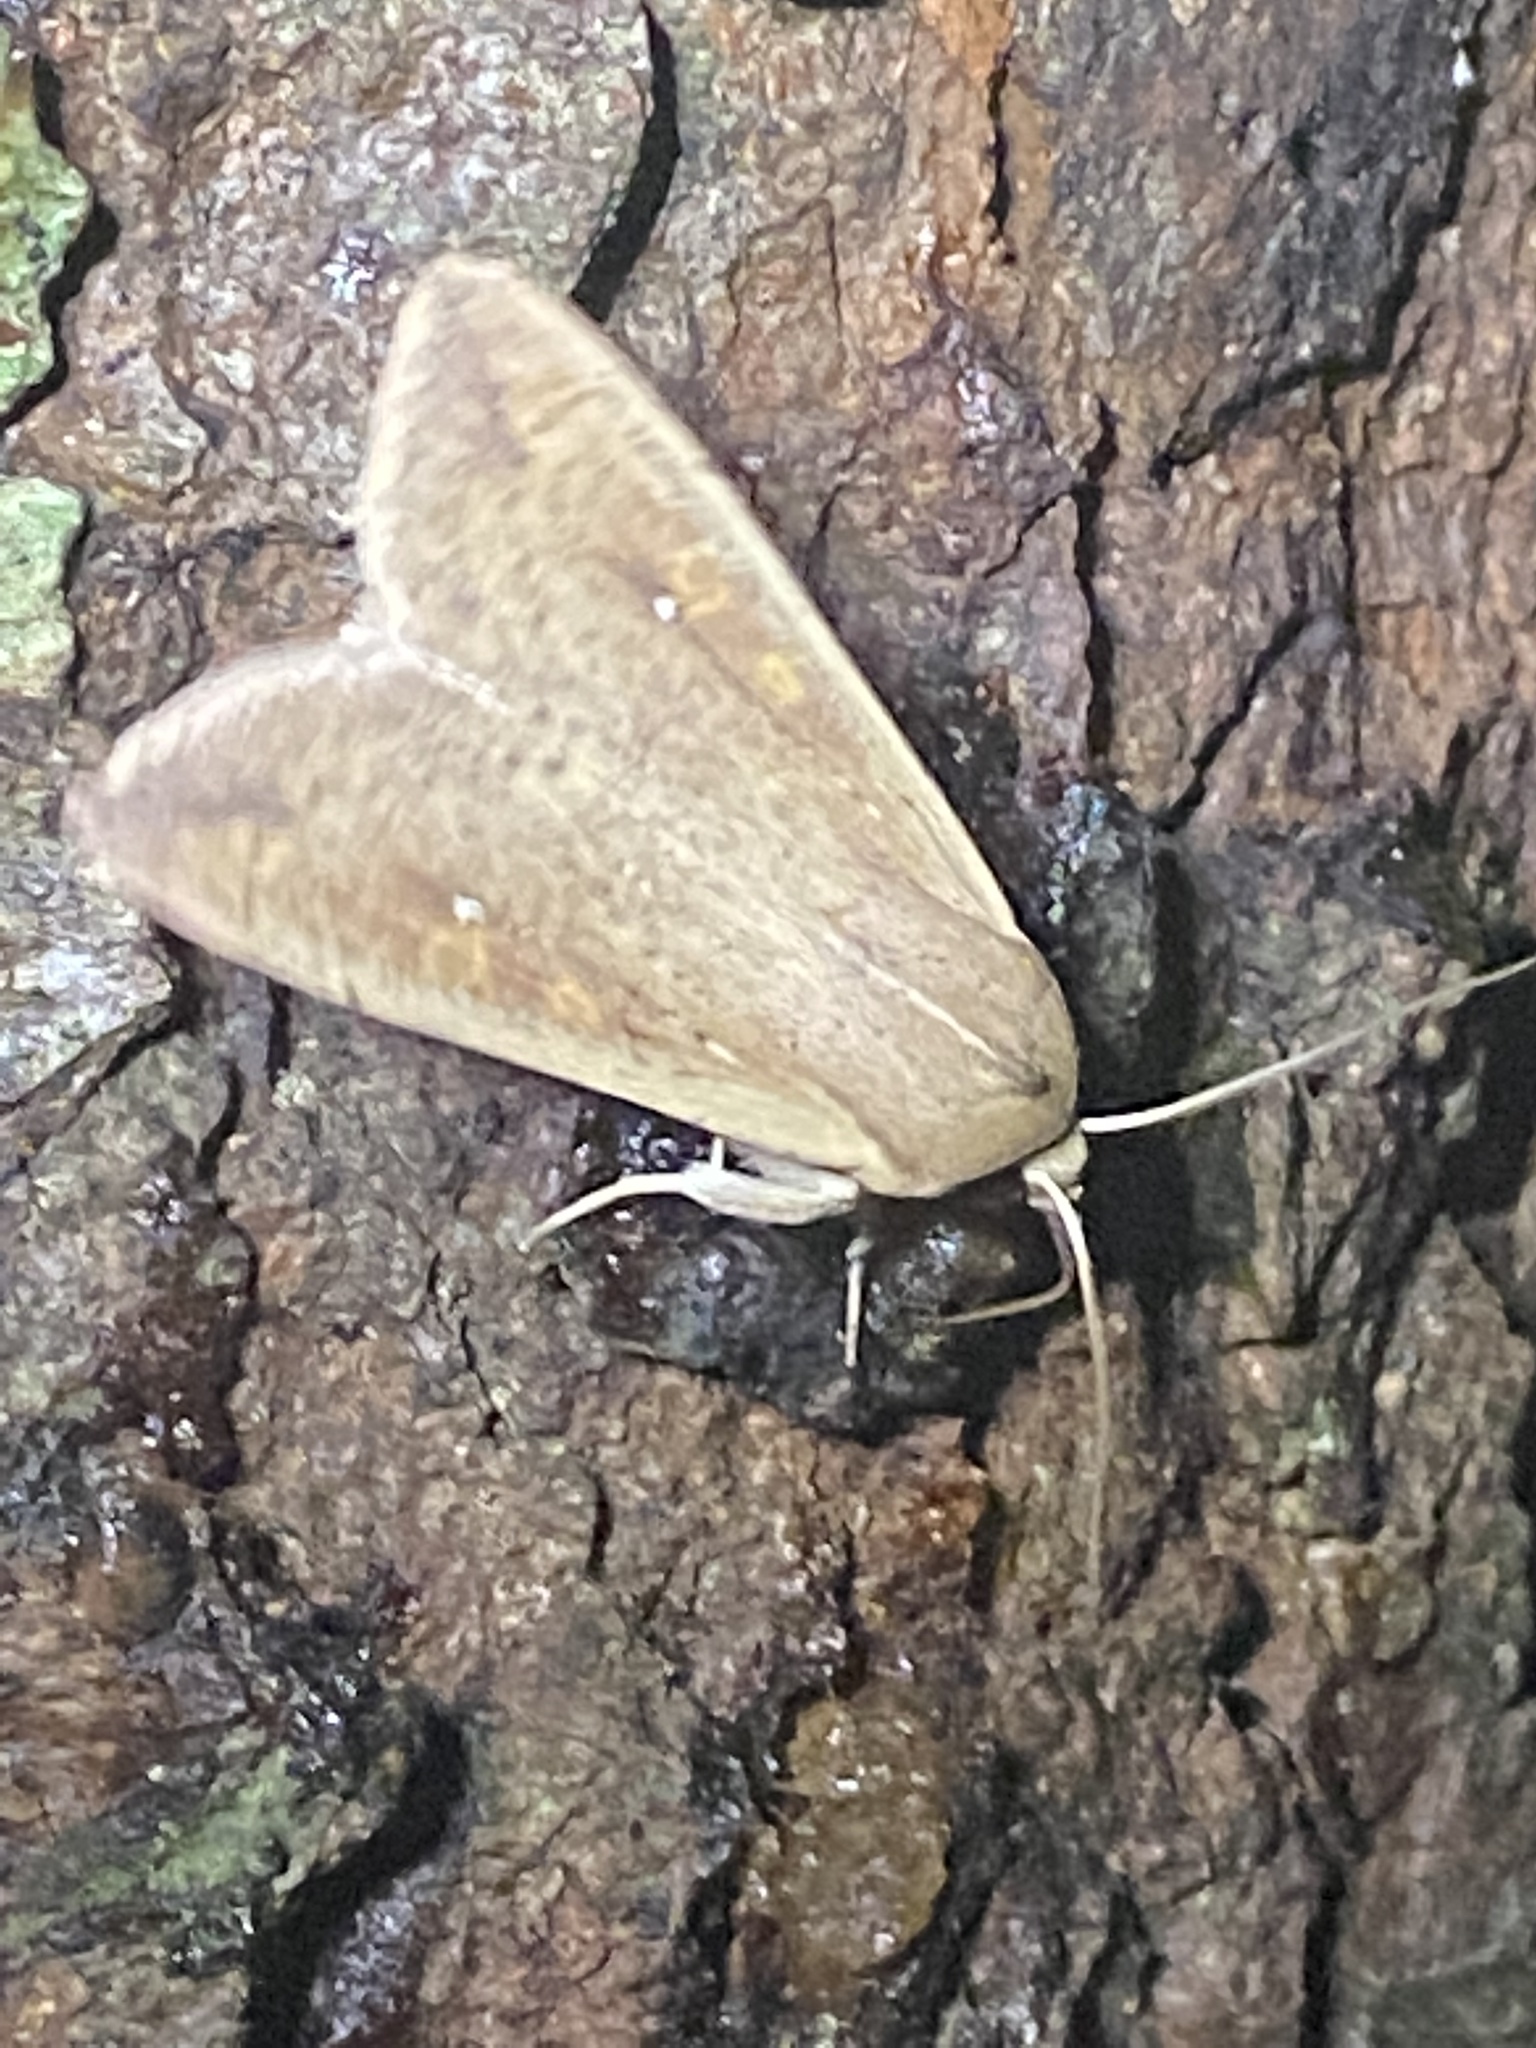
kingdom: Animalia
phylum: Arthropoda
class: Insecta
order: Lepidoptera
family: Noctuidae
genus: Mythimna
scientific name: Mythimna unipuncta
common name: White-speck
